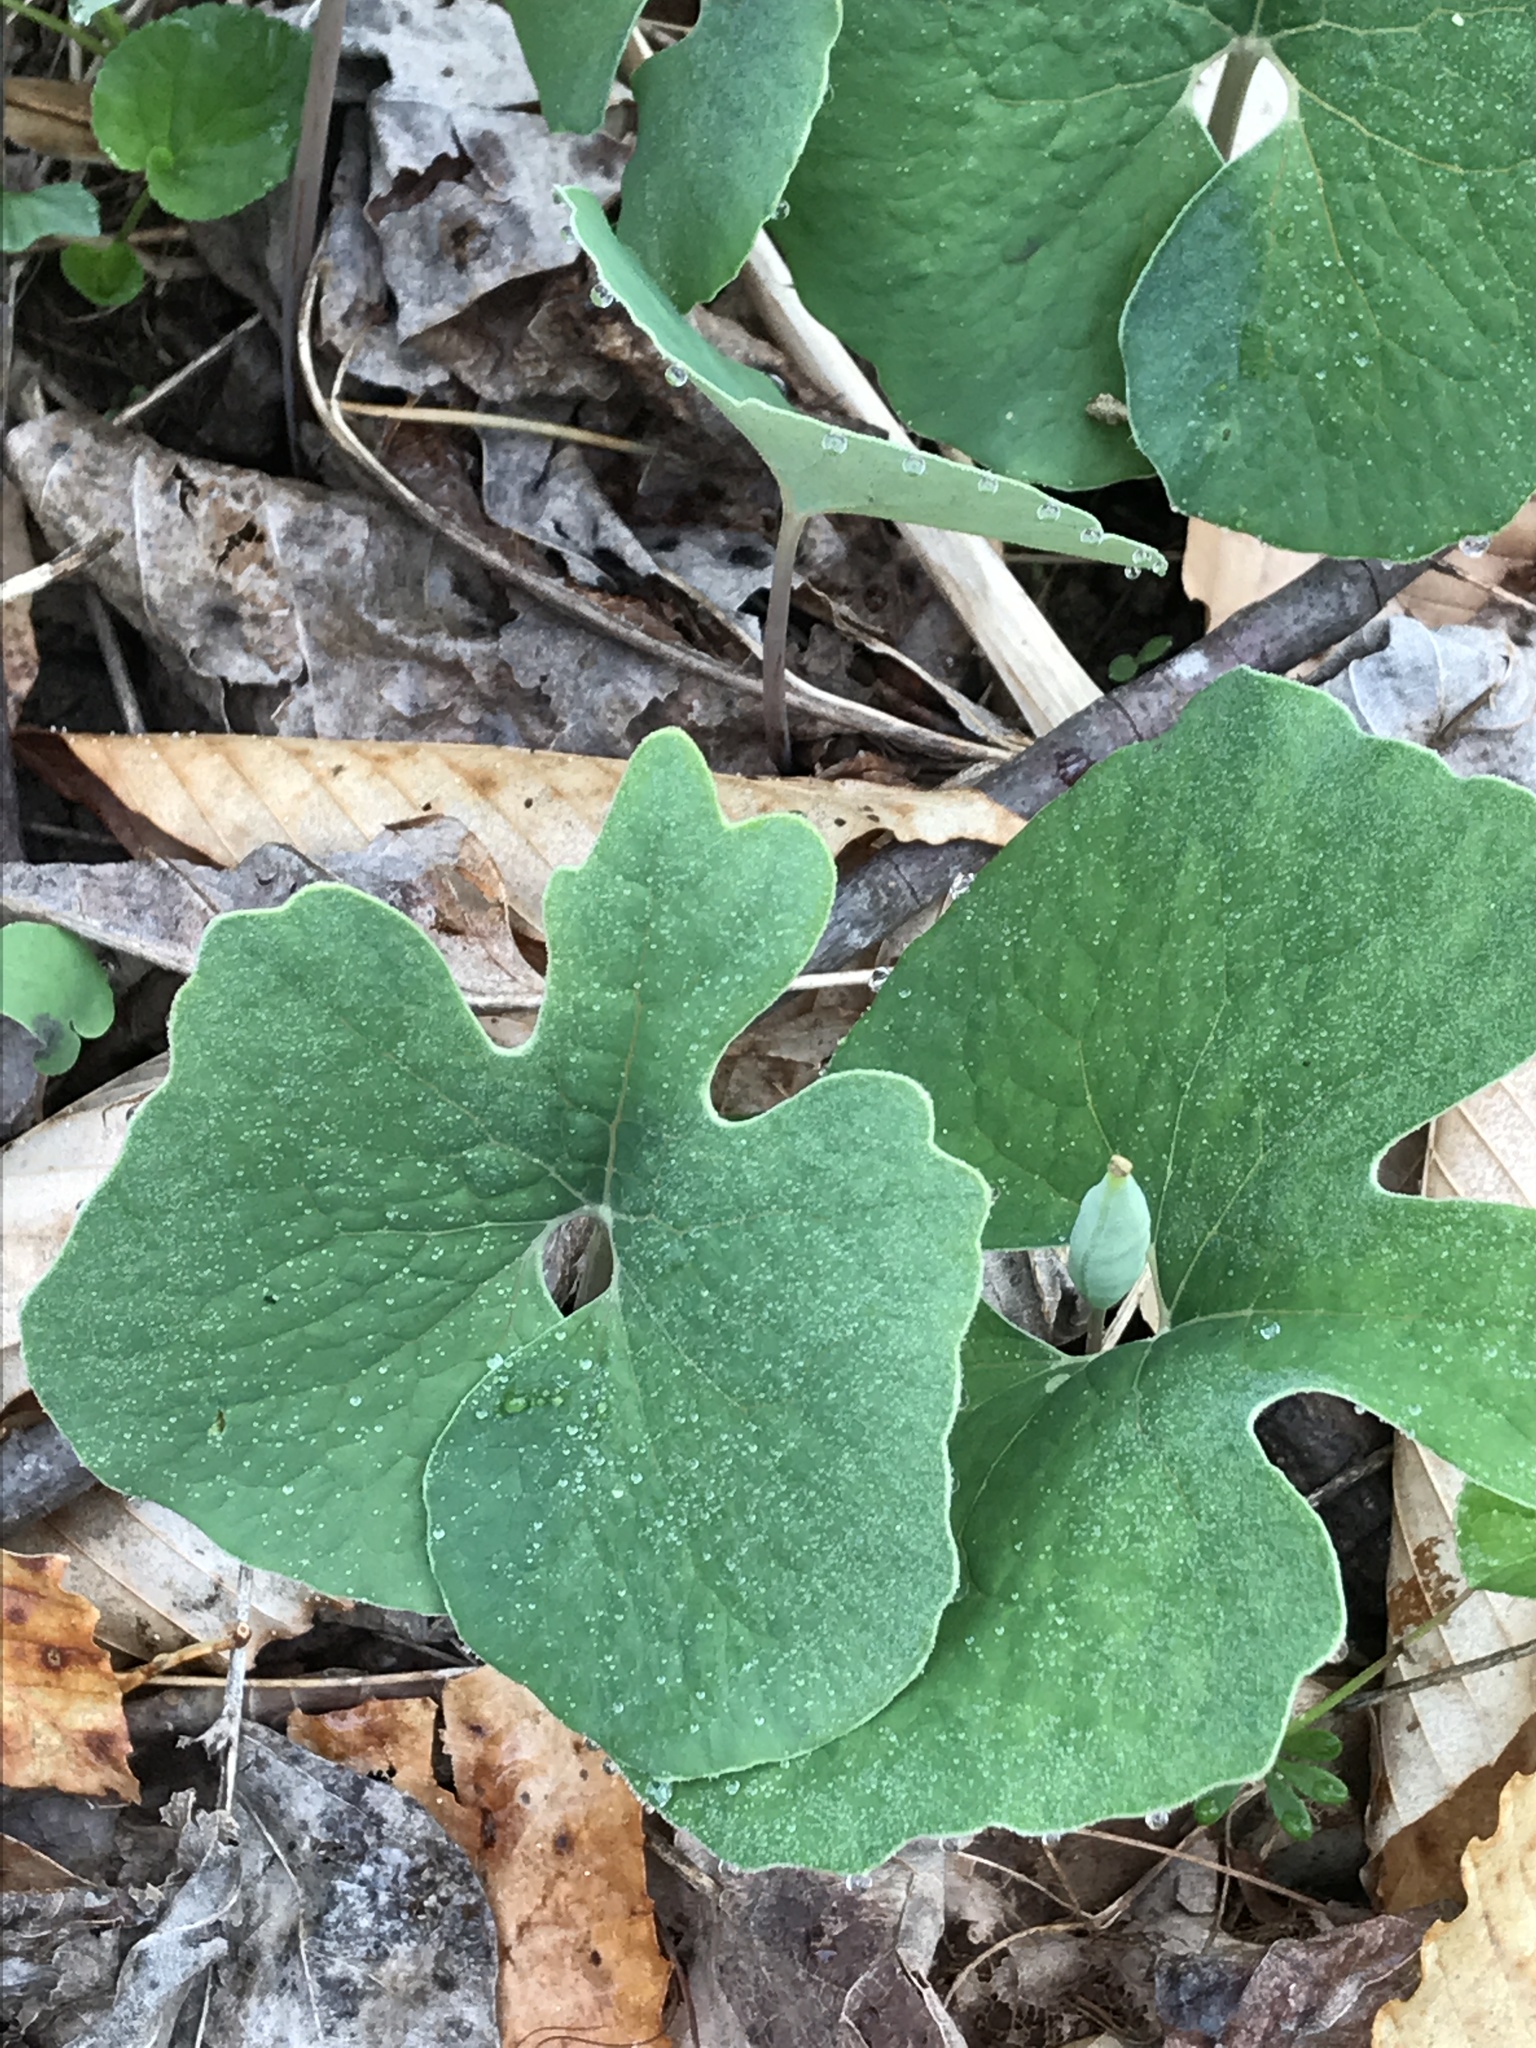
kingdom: Plantae
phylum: Tracheophyta
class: Magnoliopsida
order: Ranunculales
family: Papaveraceae
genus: Sanguinaria
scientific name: Sanguinaria canadensis
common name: Bloodroot
